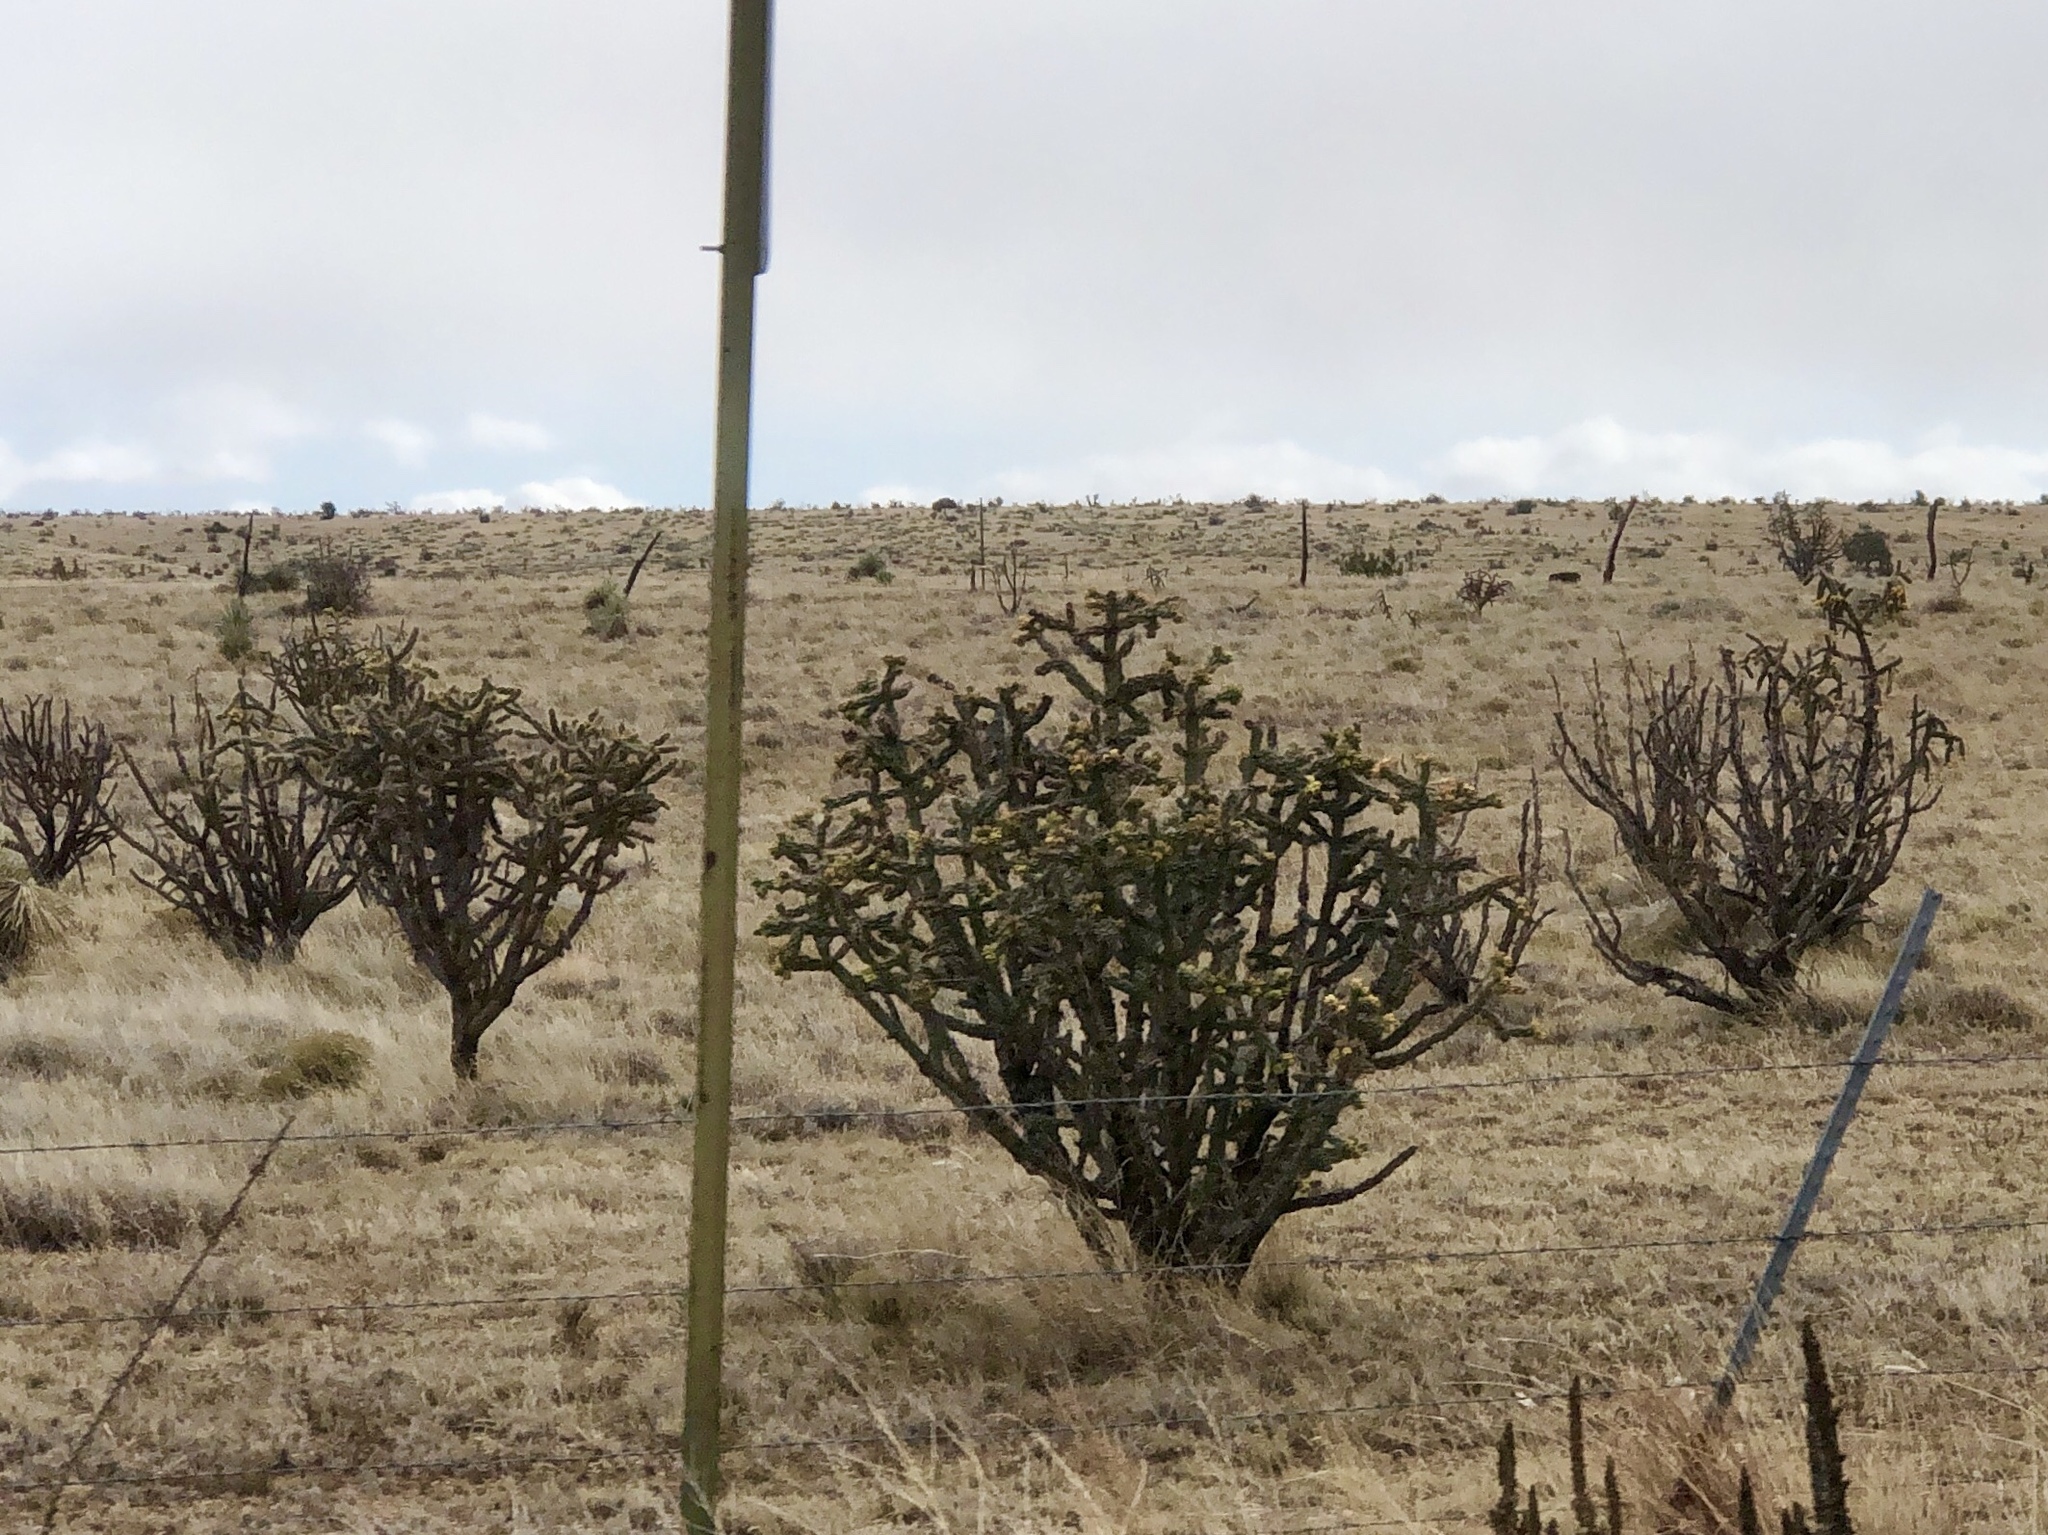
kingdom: Plantae
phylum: Tracheophyta
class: Magnoliopsida
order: Caryophyllales
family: Cactaceae
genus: Cylindropuntia
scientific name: Cylindropuntia imbricata
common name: Candelabrum cactus
